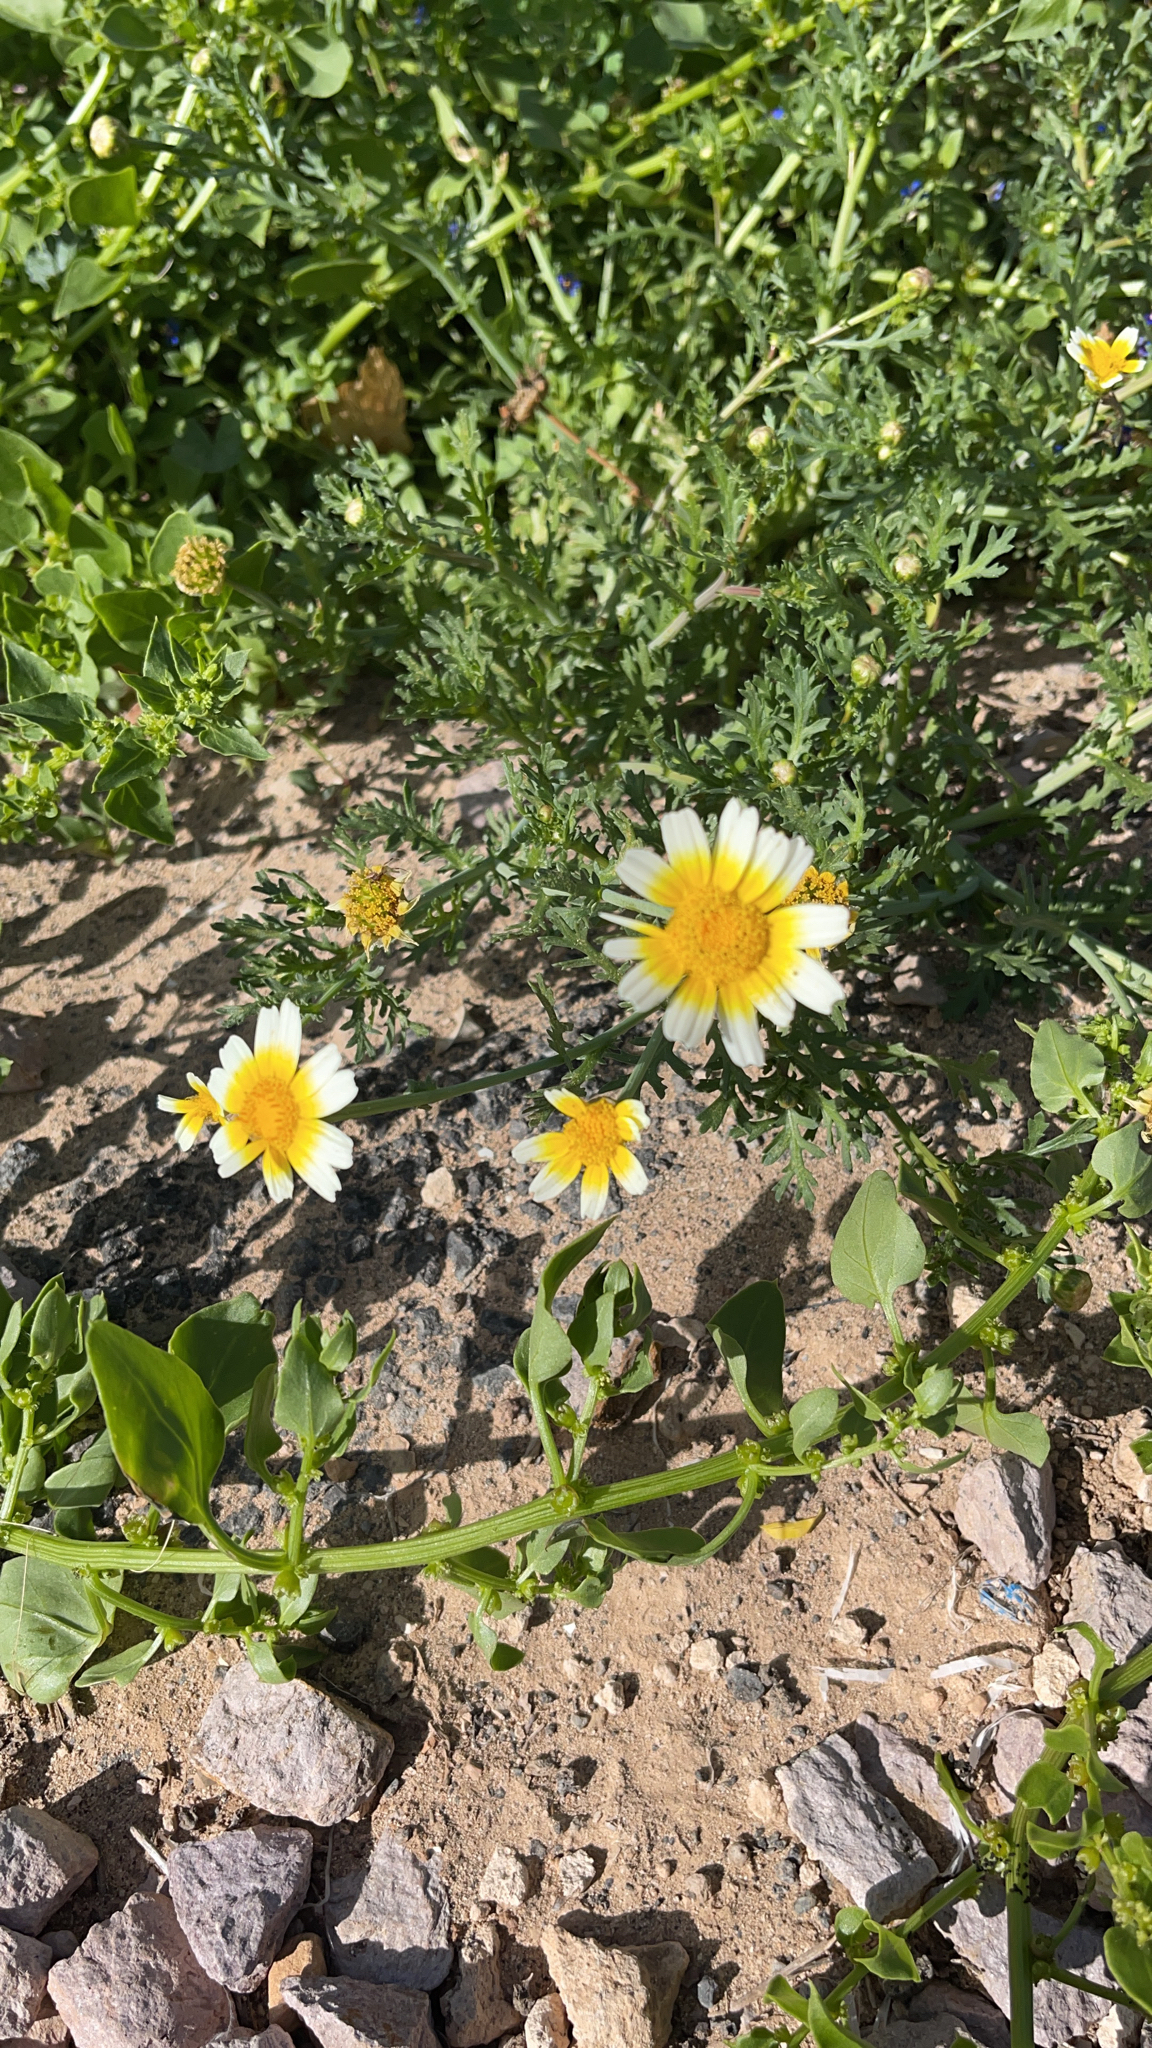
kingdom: Plantae
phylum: Tracheophyta
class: Magnoliopsida
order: Asterales
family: Asteraceae
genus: Glebionis
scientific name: Glebionis coronaria
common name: Crowndaisy
